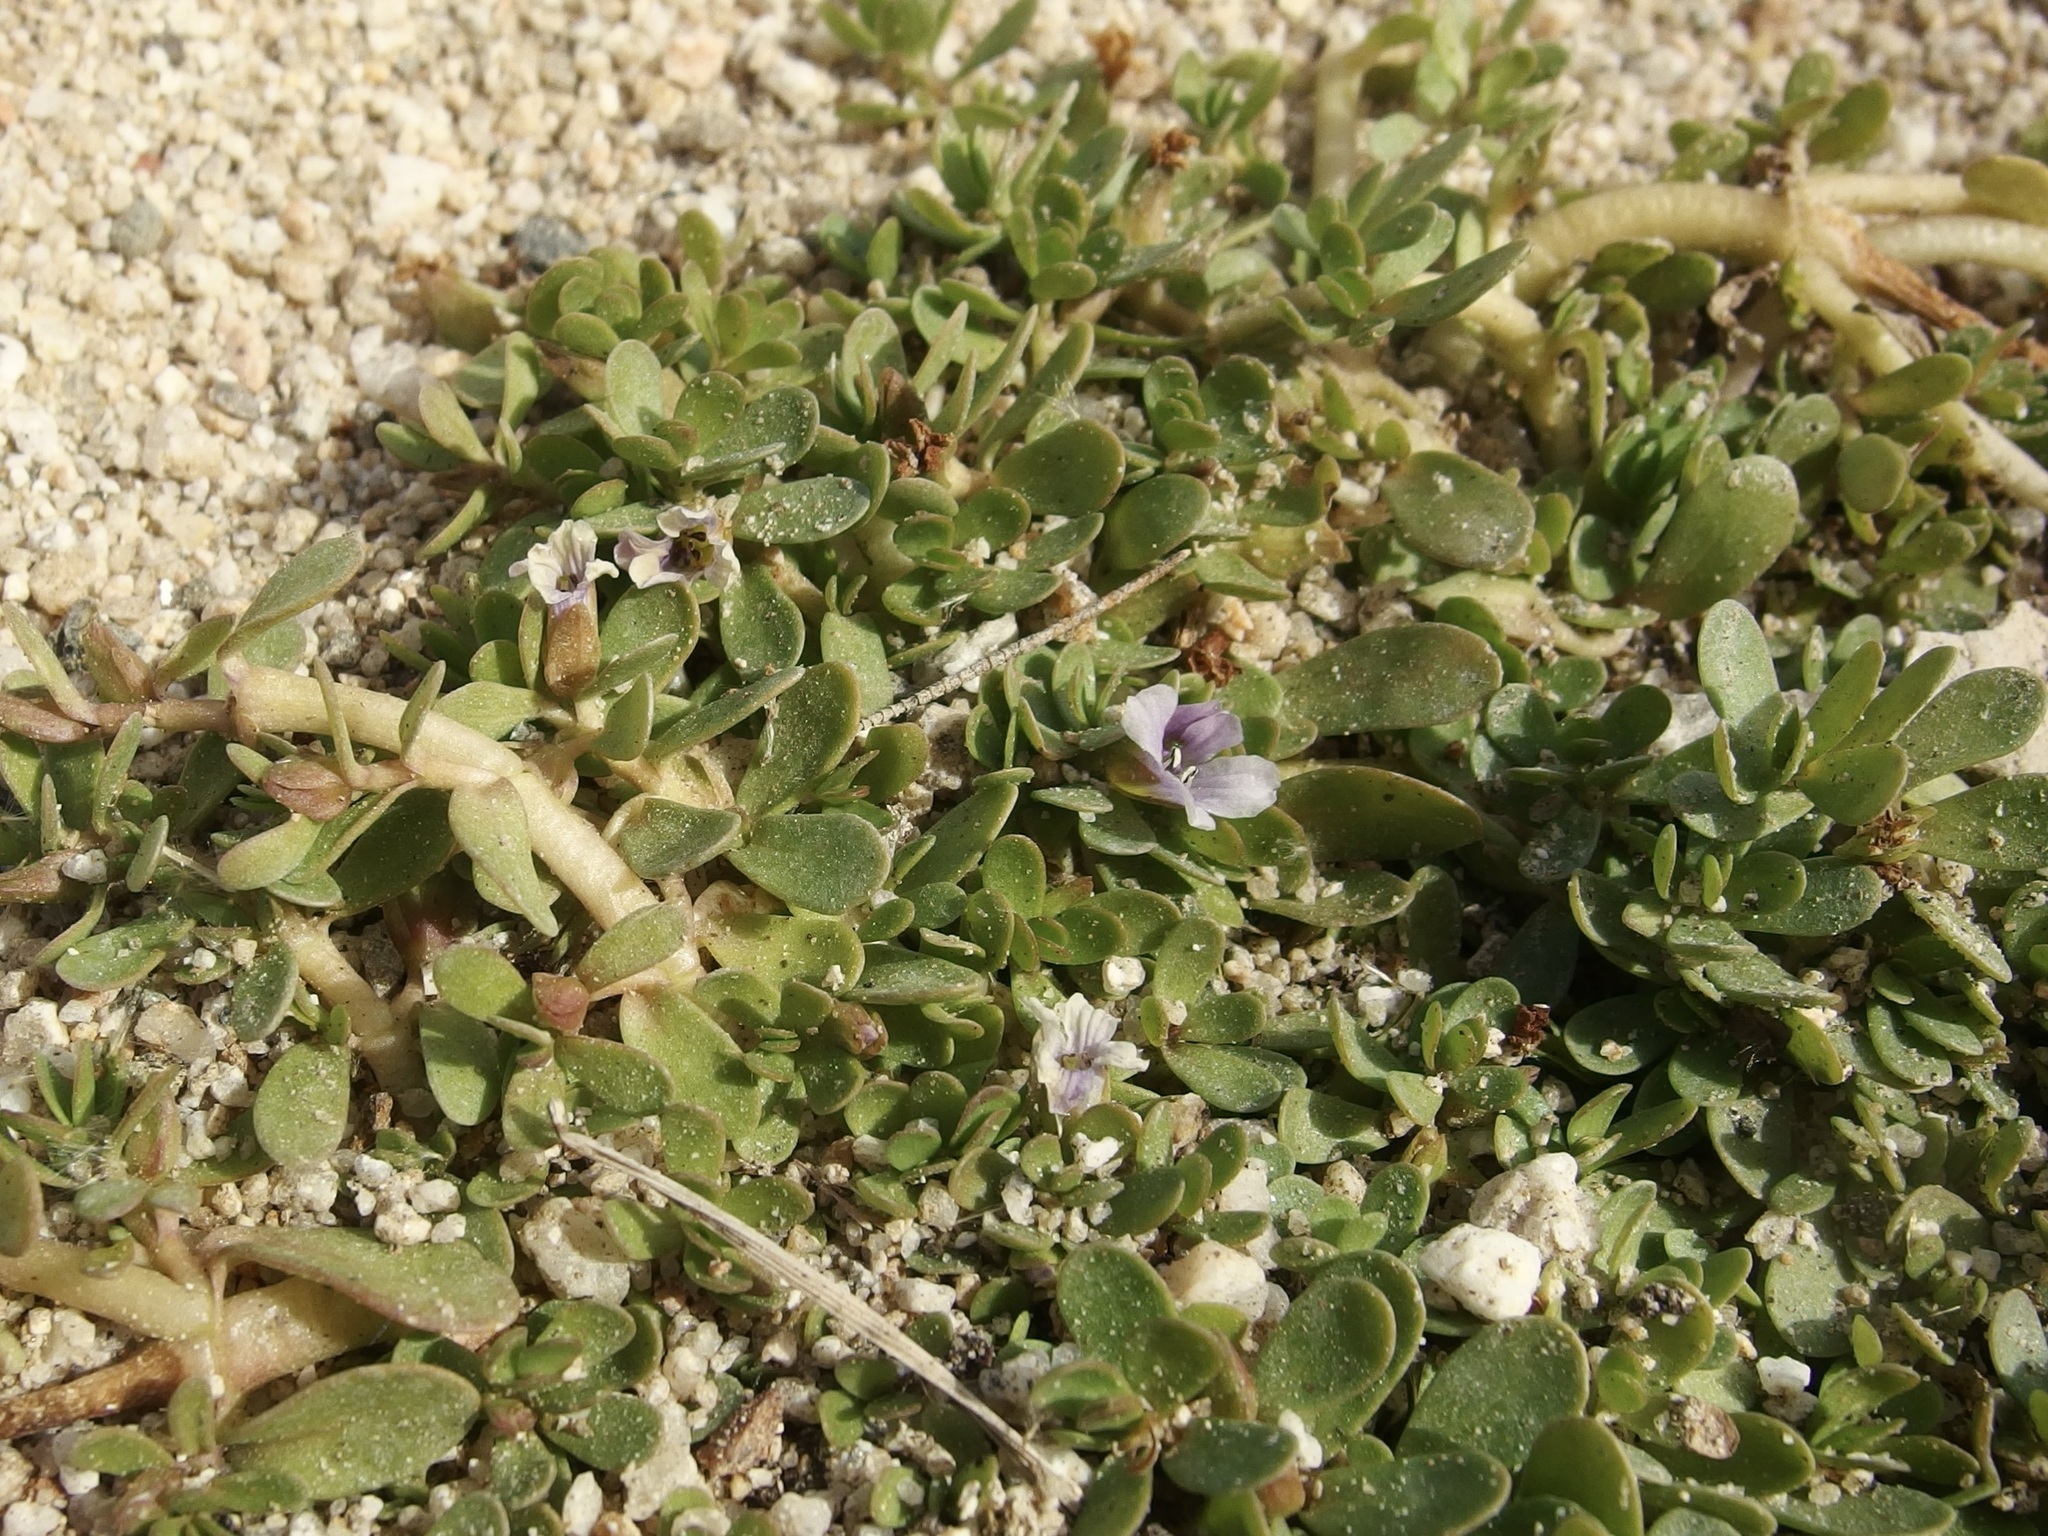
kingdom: Plantae
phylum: Tracheophyta
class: Magnoliopsida
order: Lamiales
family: Plantaginaceae
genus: Bacopa
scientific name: Bacopa monnieri
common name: Indian-pennywort
